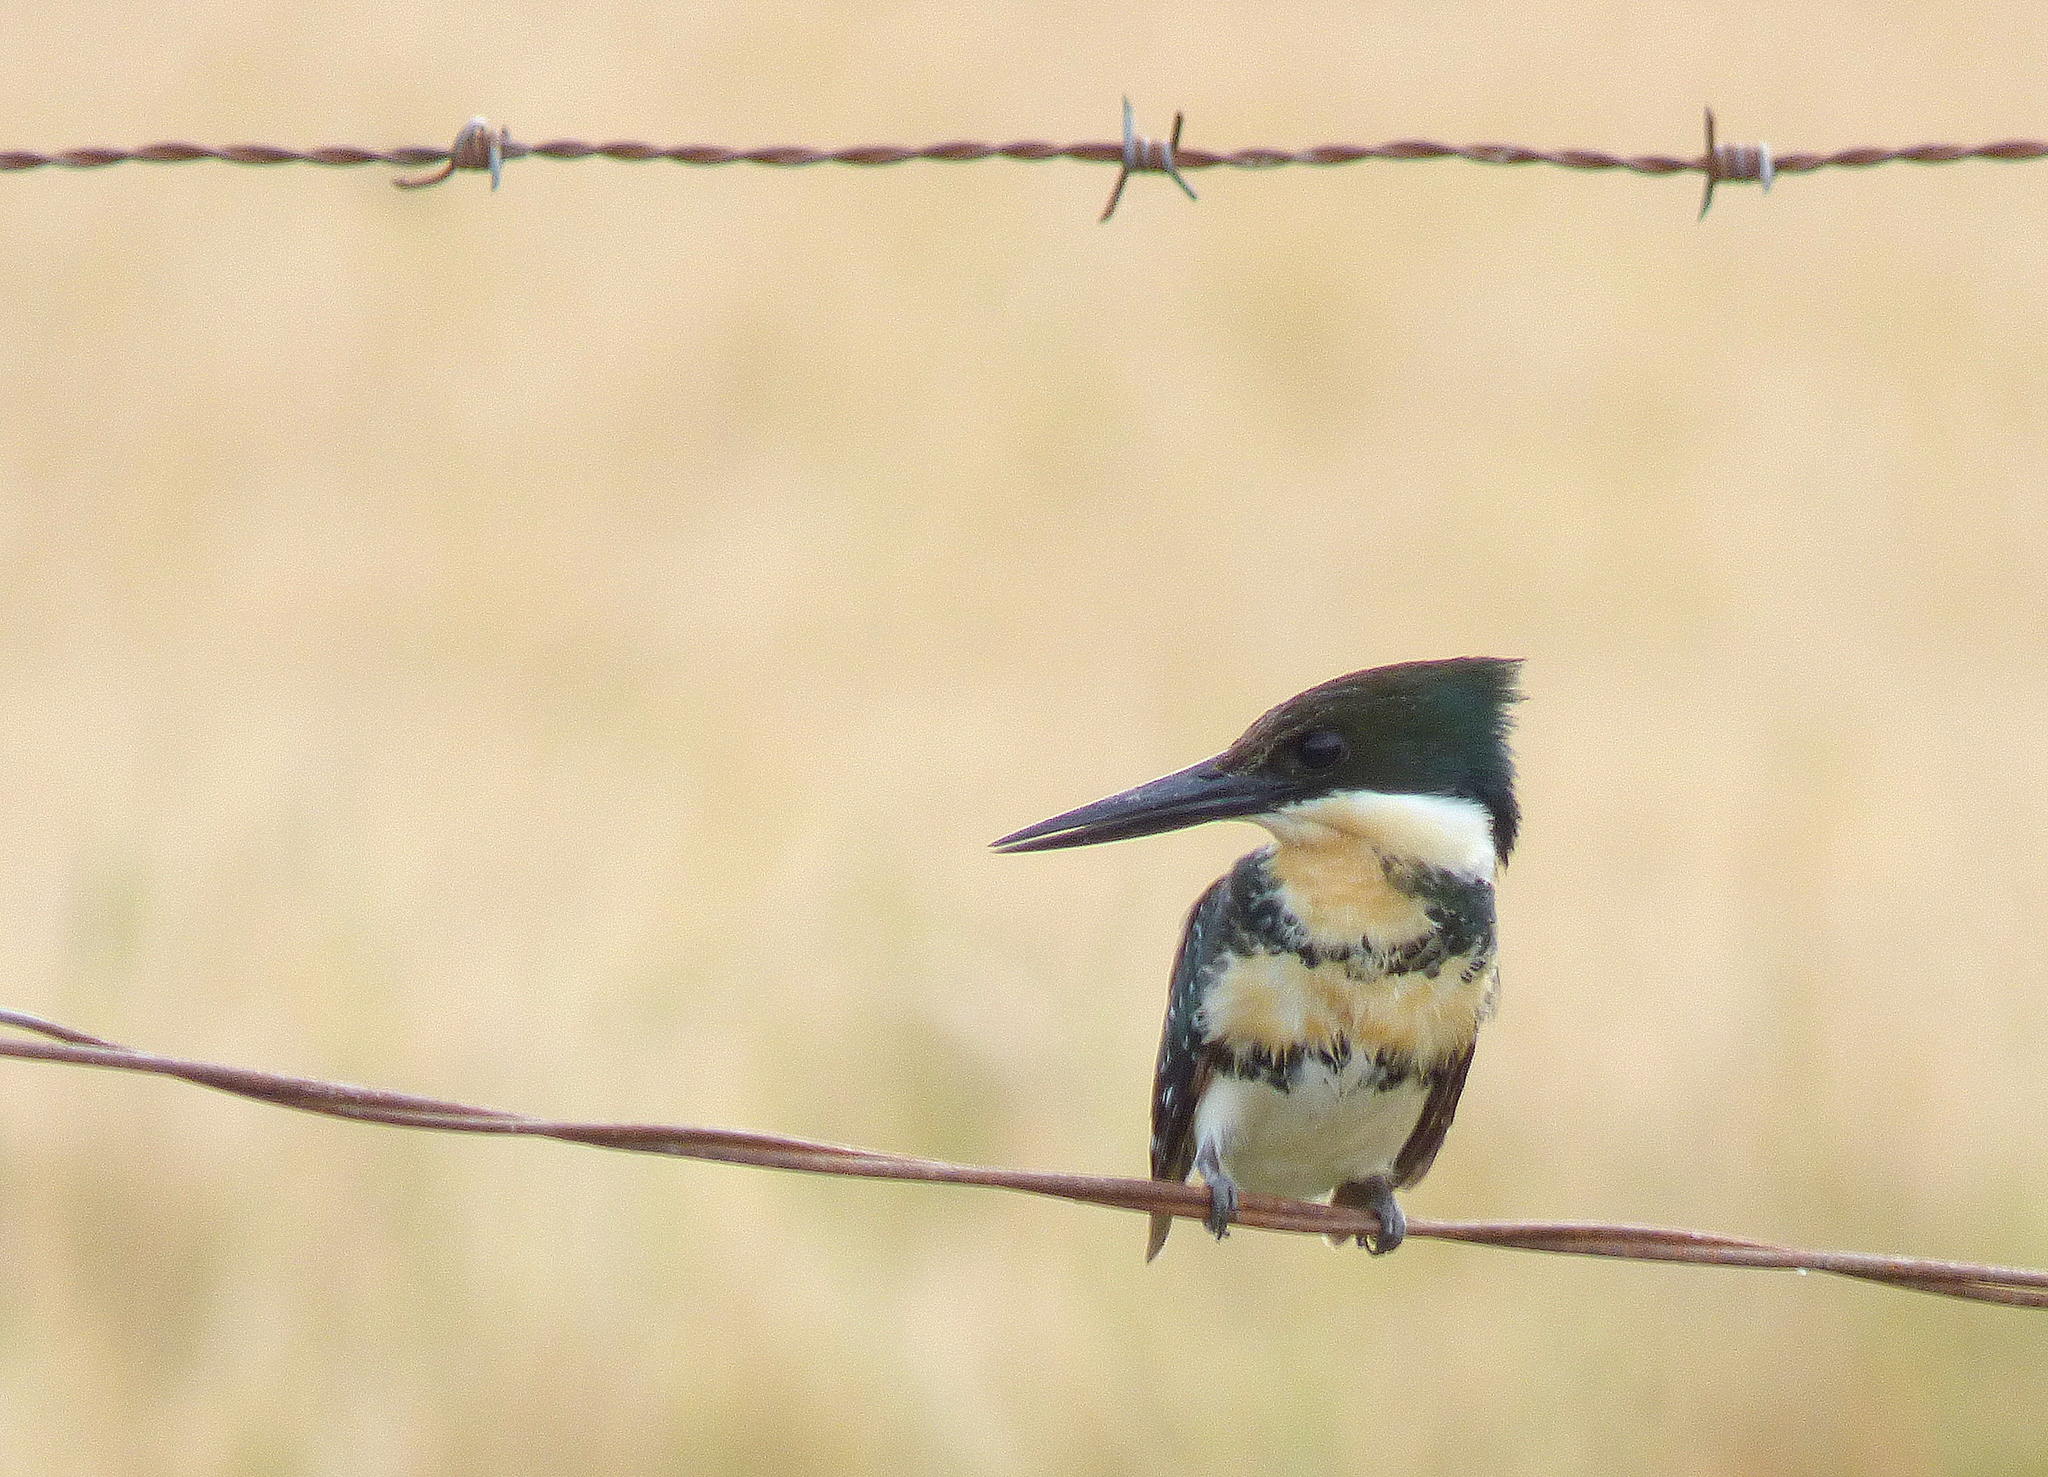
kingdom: Animalia
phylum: Chordata
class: Aves
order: Coraciiformes
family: Alcedinidae
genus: Chloroceryle
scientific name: Chloroceryle americana
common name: Green kingfisher
